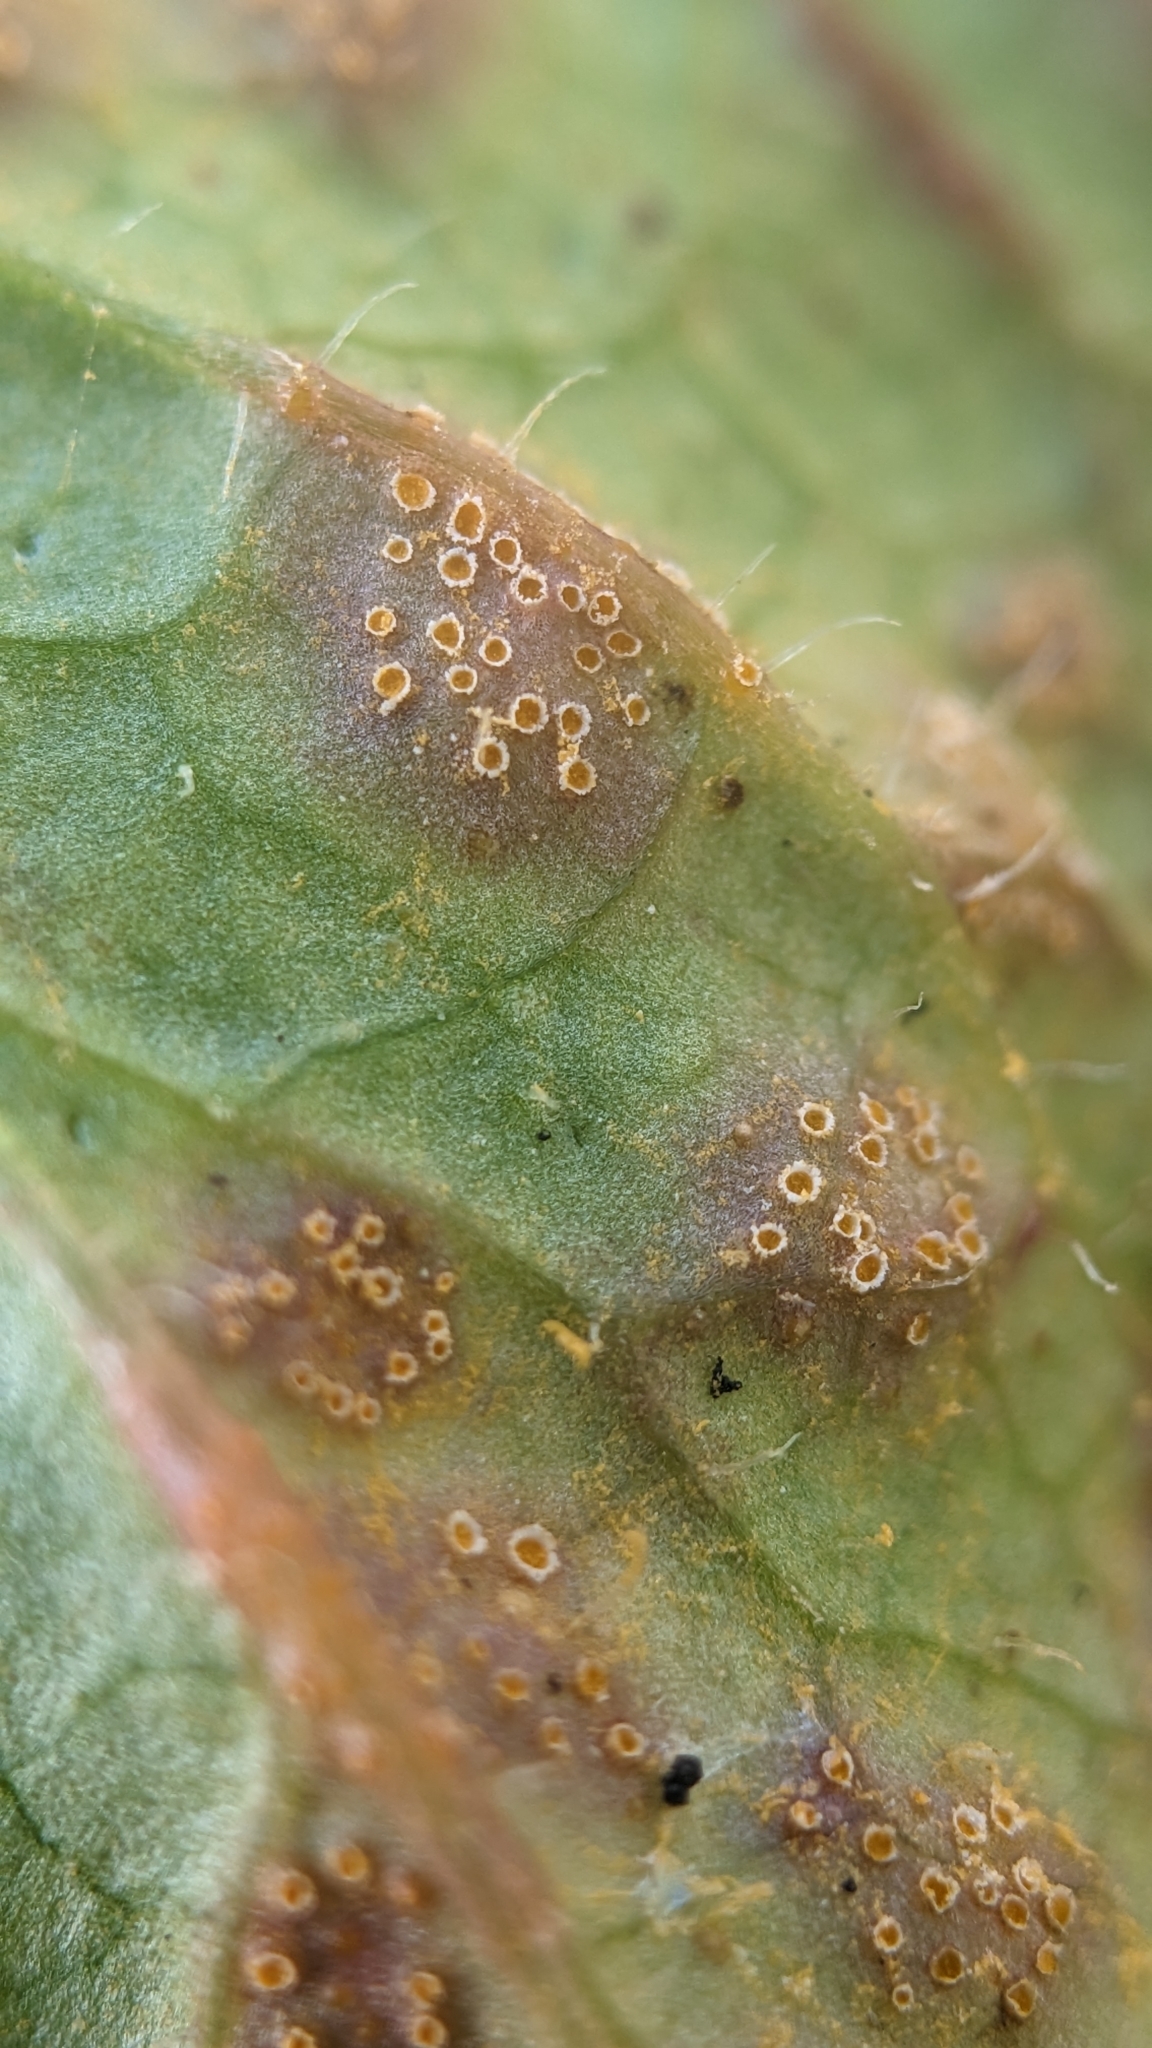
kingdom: Fungi
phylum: Basidiomycota
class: Pucciniomycetes
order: Pucciniales
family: Pucciniaceae
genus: Puccinia
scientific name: Puccinia lapsanae
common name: Nipplewort rust
